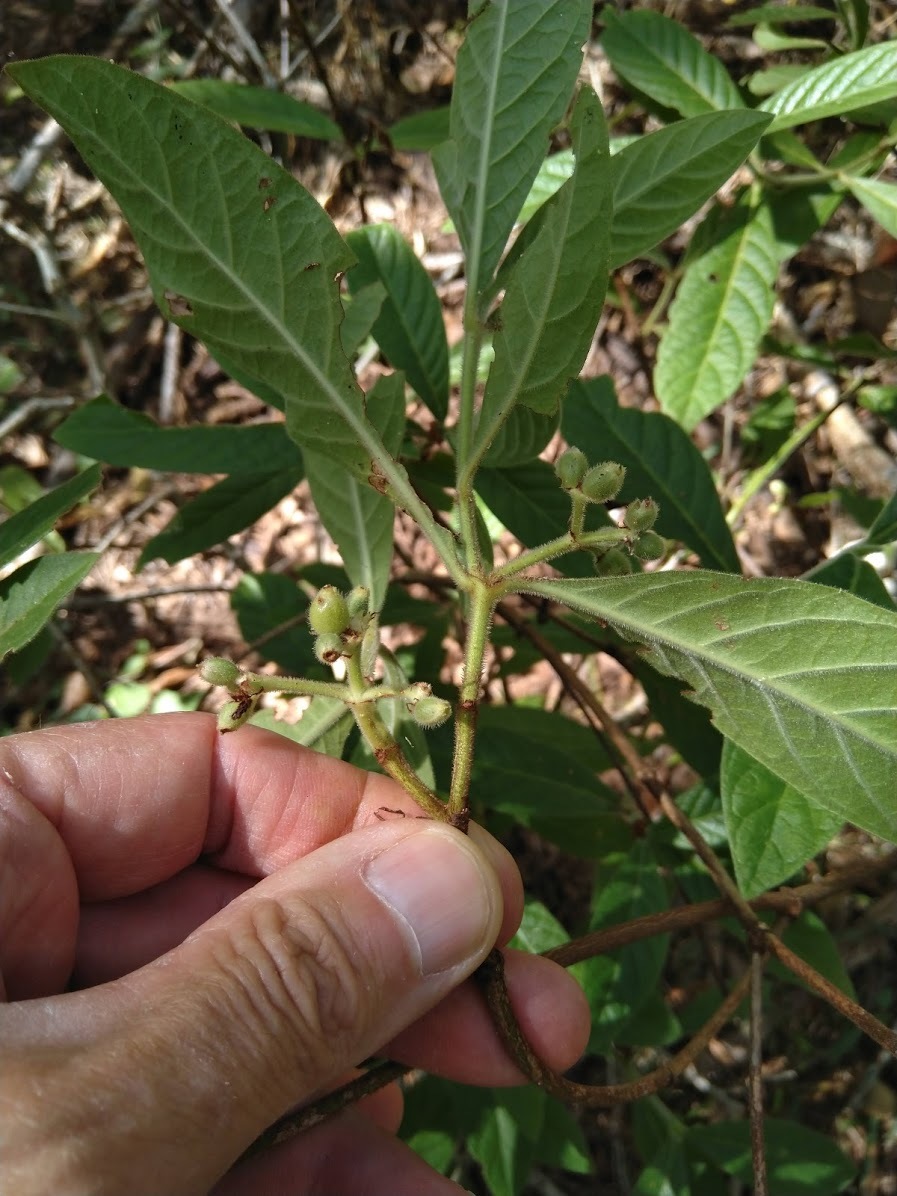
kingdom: Plantae
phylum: Tracheophyta
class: Magnoliopsida
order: Gentianales
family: Rubiaceae
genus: Psychotria
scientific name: Psychotria loniceroides
